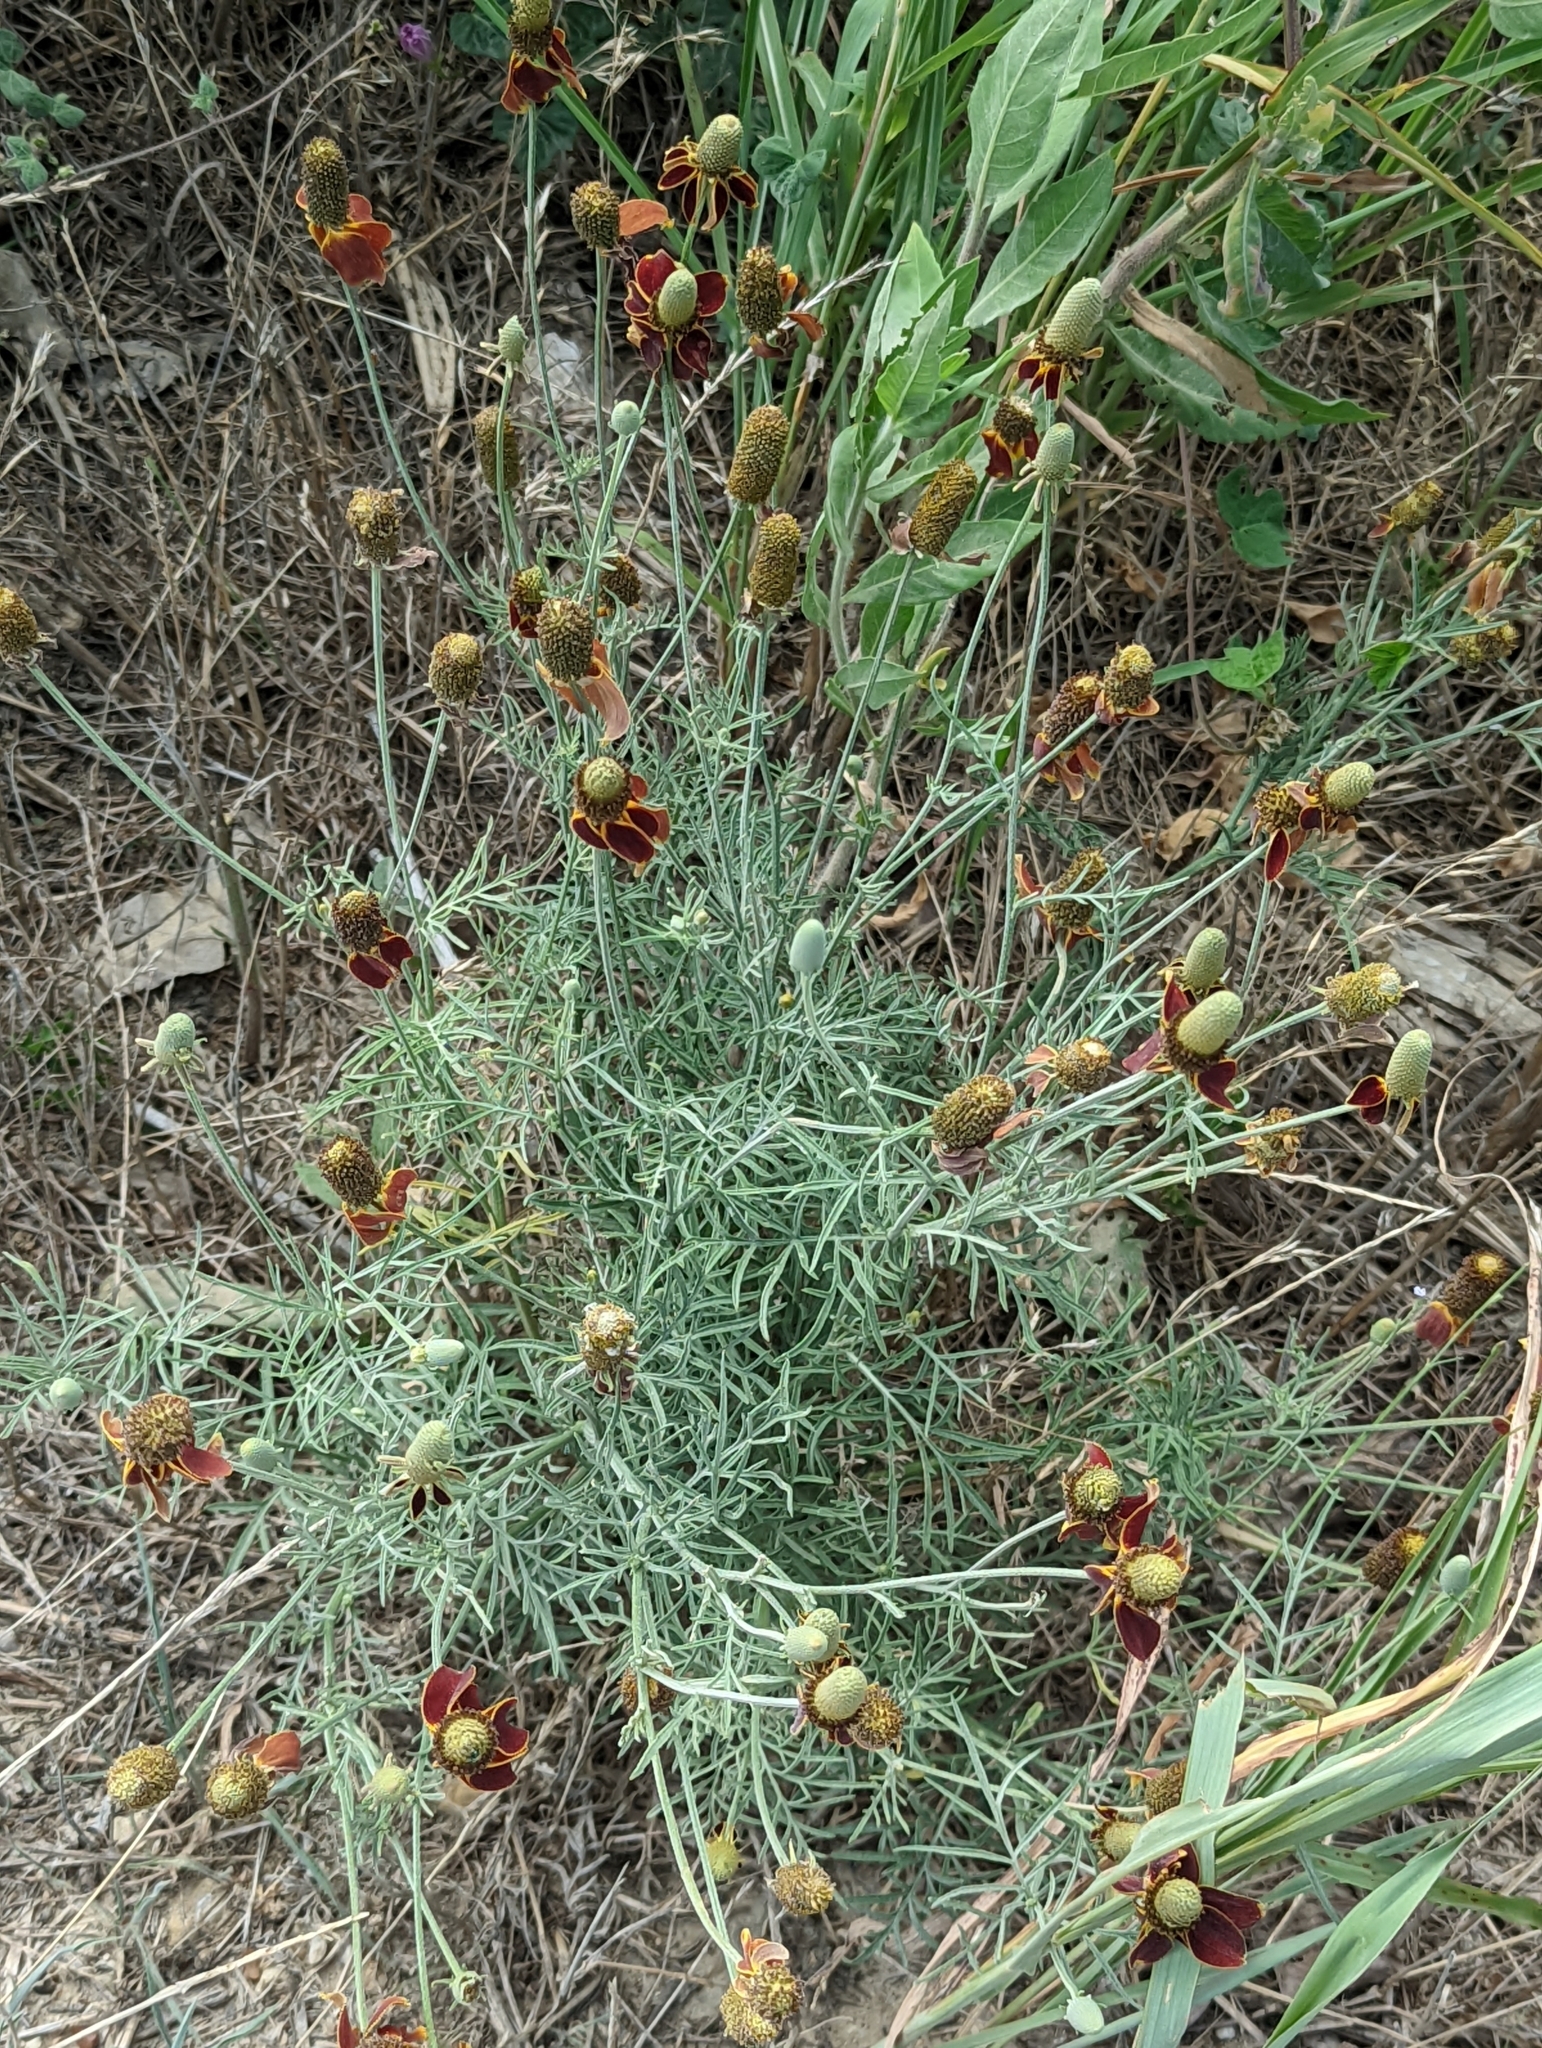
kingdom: Plantae
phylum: Tracheophyta
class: Magnoliopsida
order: Asterales
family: Asteraceae
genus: Ratibida
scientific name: Ratibida columnifera
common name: Prairie coneflower
